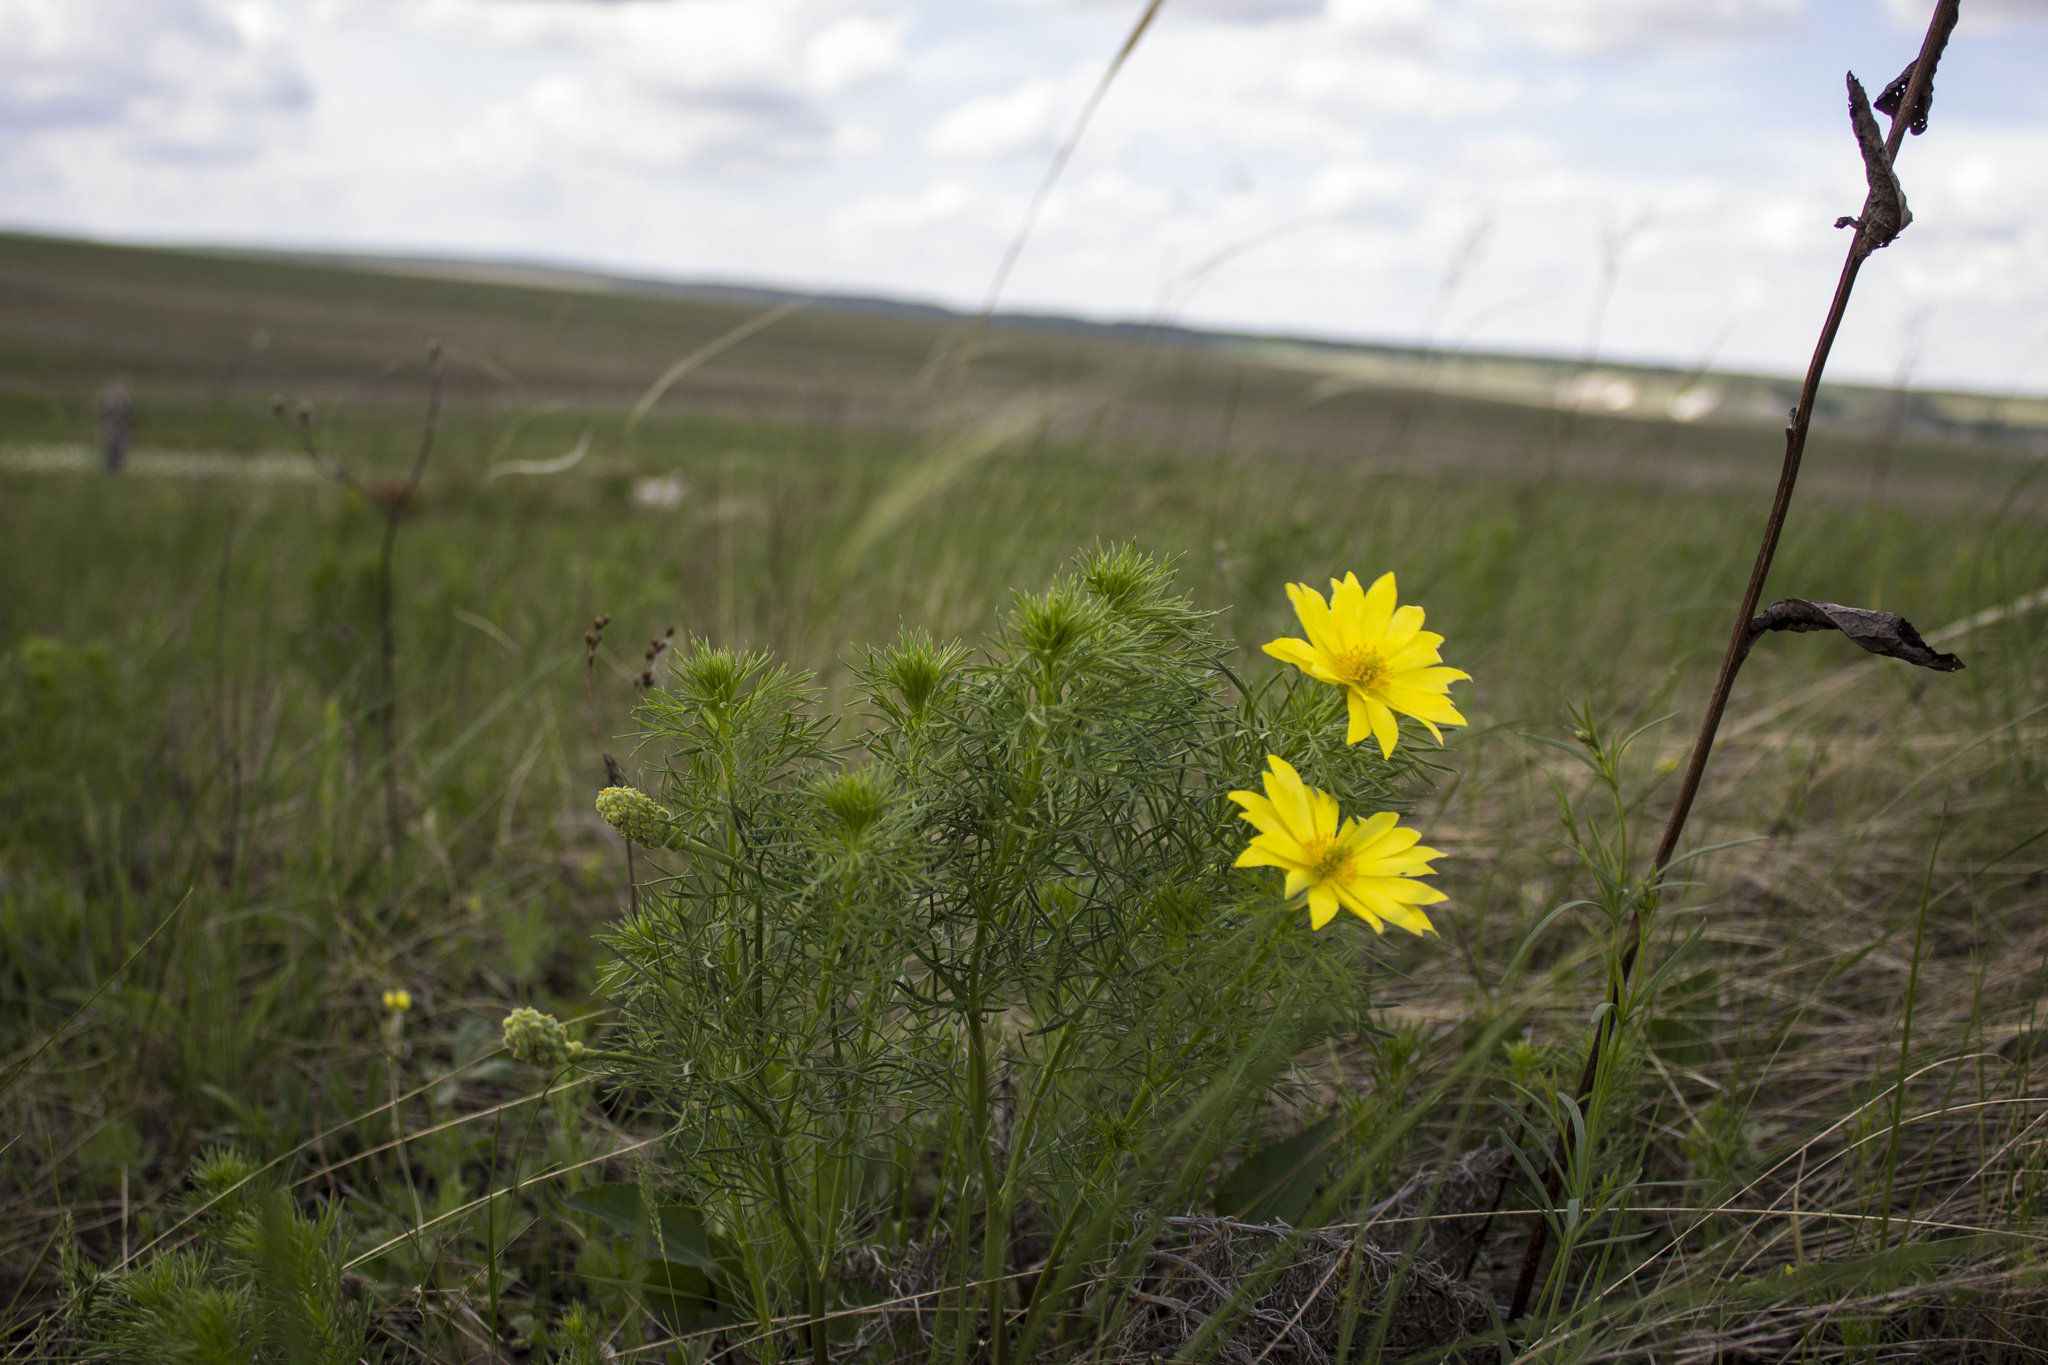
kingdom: Plantae
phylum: Tracheophyta
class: Magnoliopsida
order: Ranunculales
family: Ranunculaceae
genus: Adonis
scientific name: Adonis vernalis
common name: Yellow pheasants-eye
